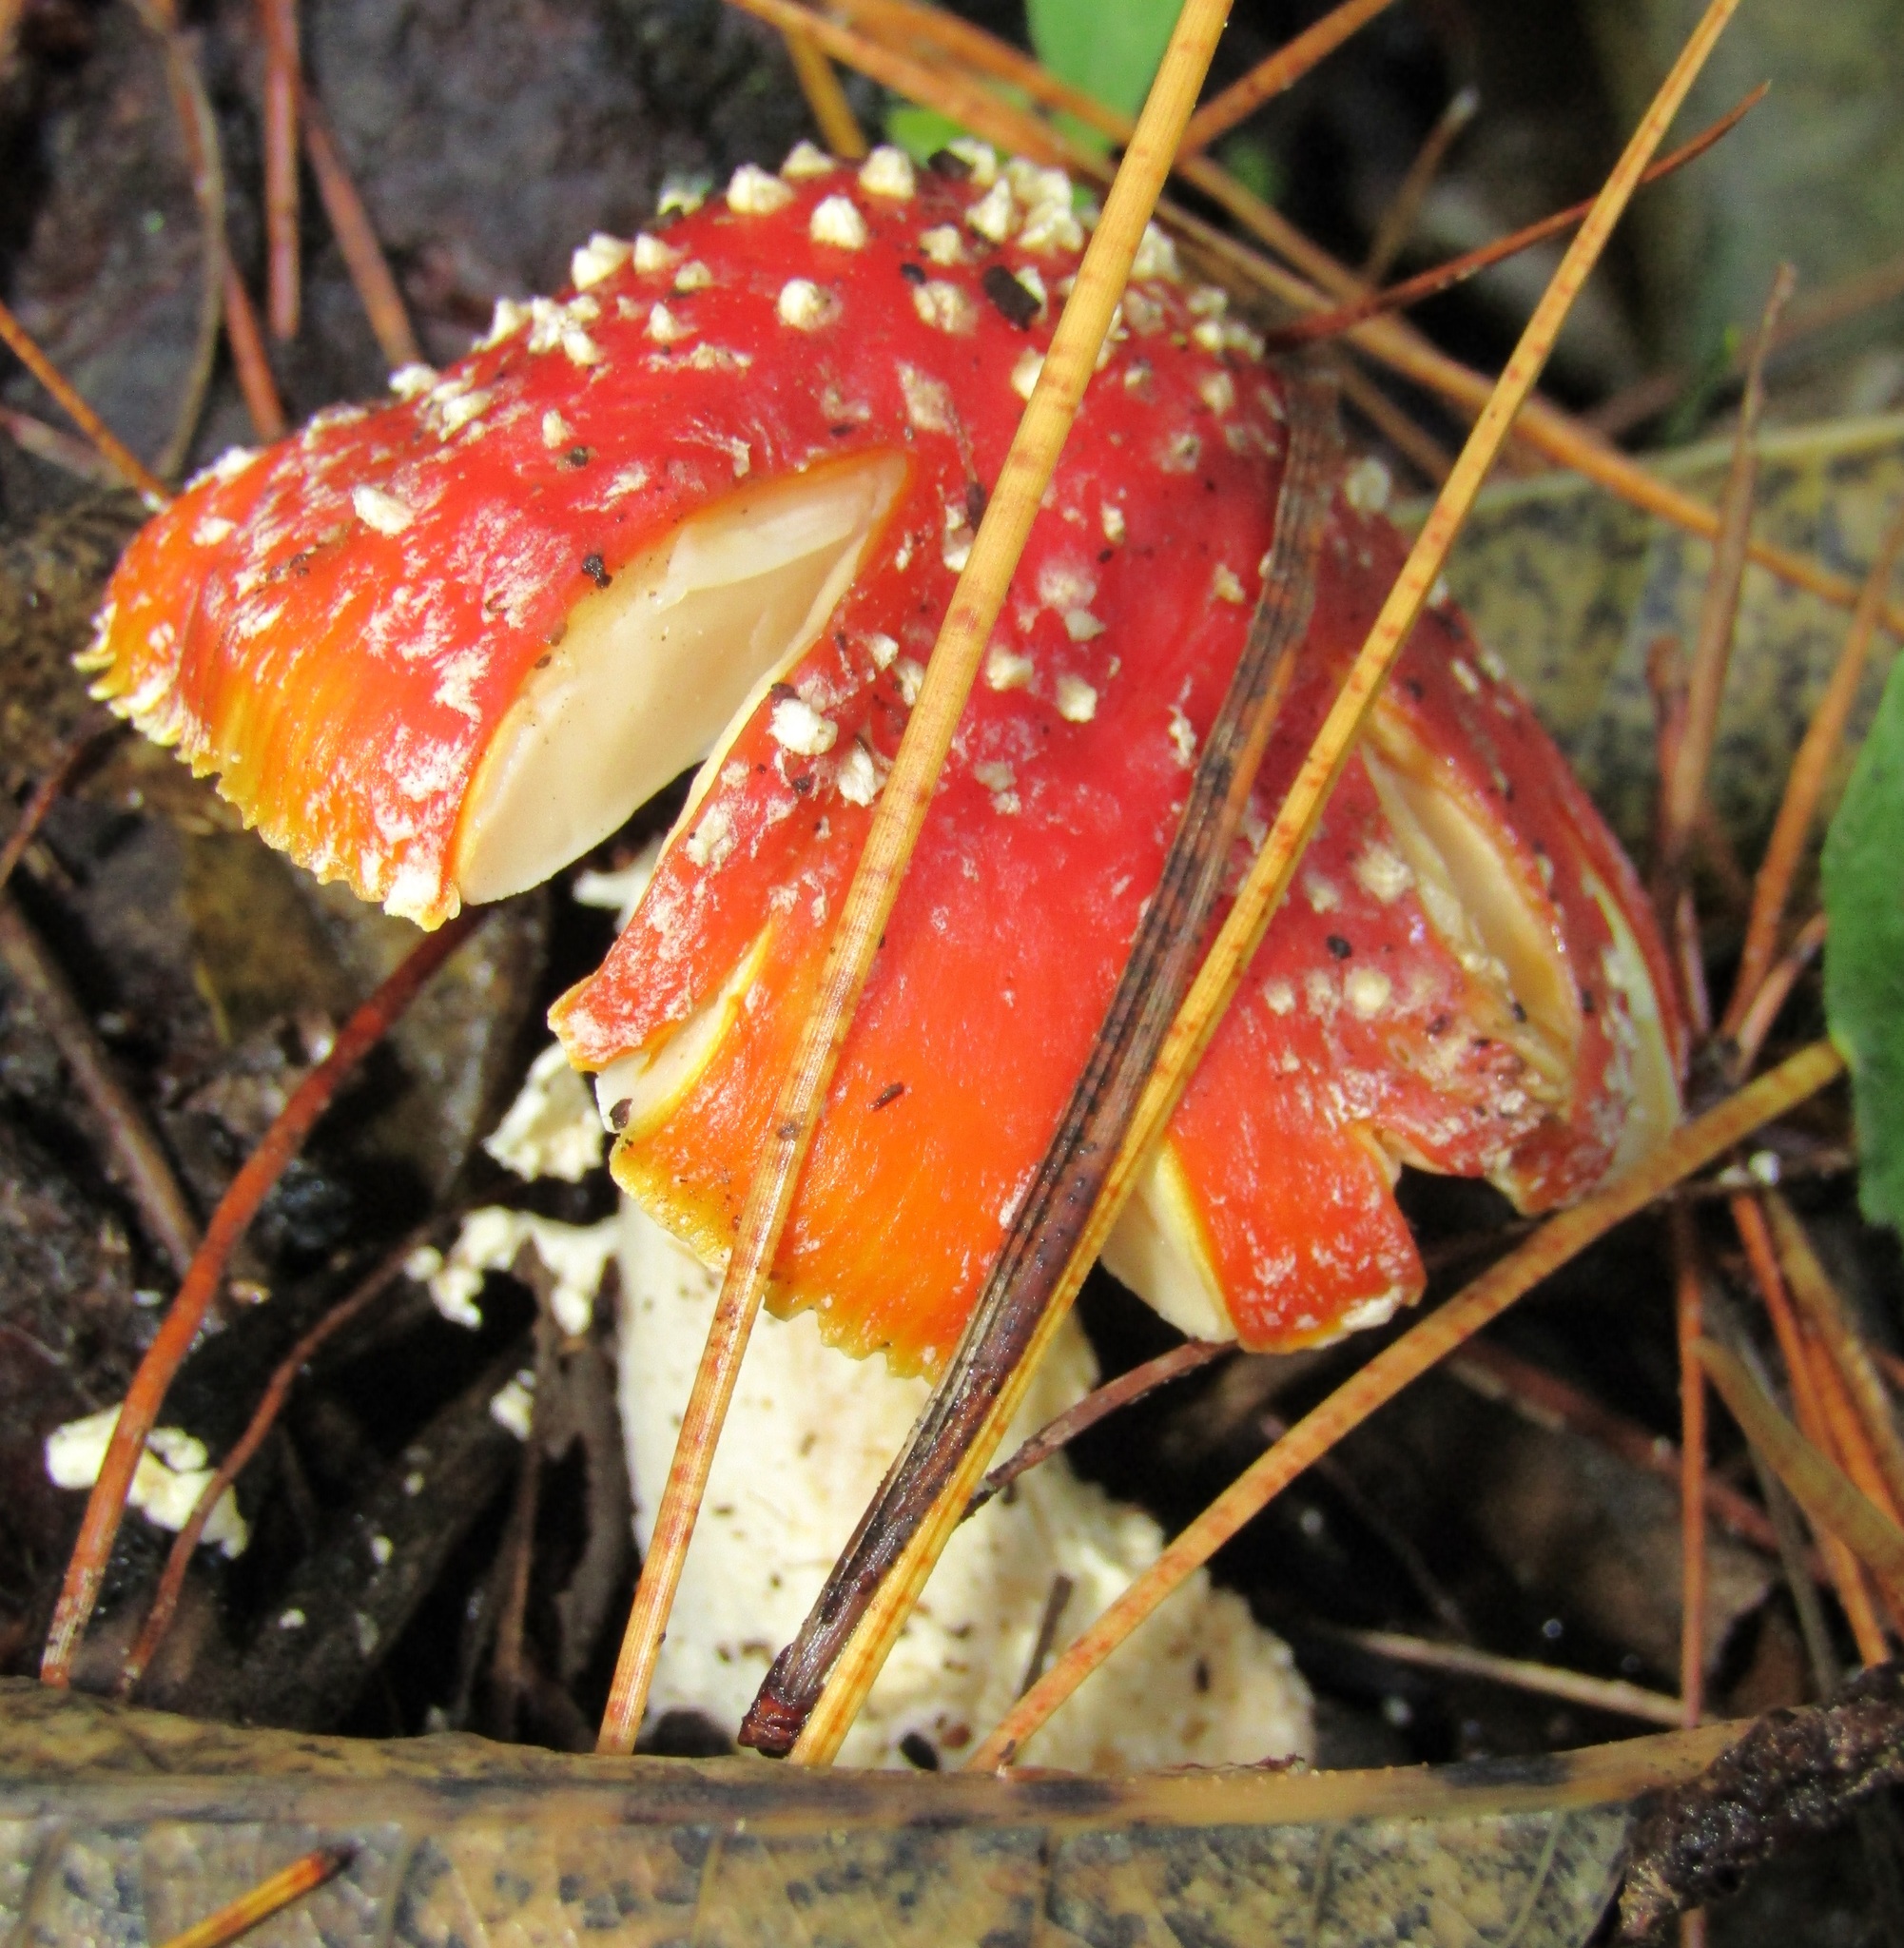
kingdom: Fungi
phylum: Basidiomycota
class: Agaricomycetes
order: Agaricales
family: Amanitaceae
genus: Amanita
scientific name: Amanita muscaria
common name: Fly agaric
